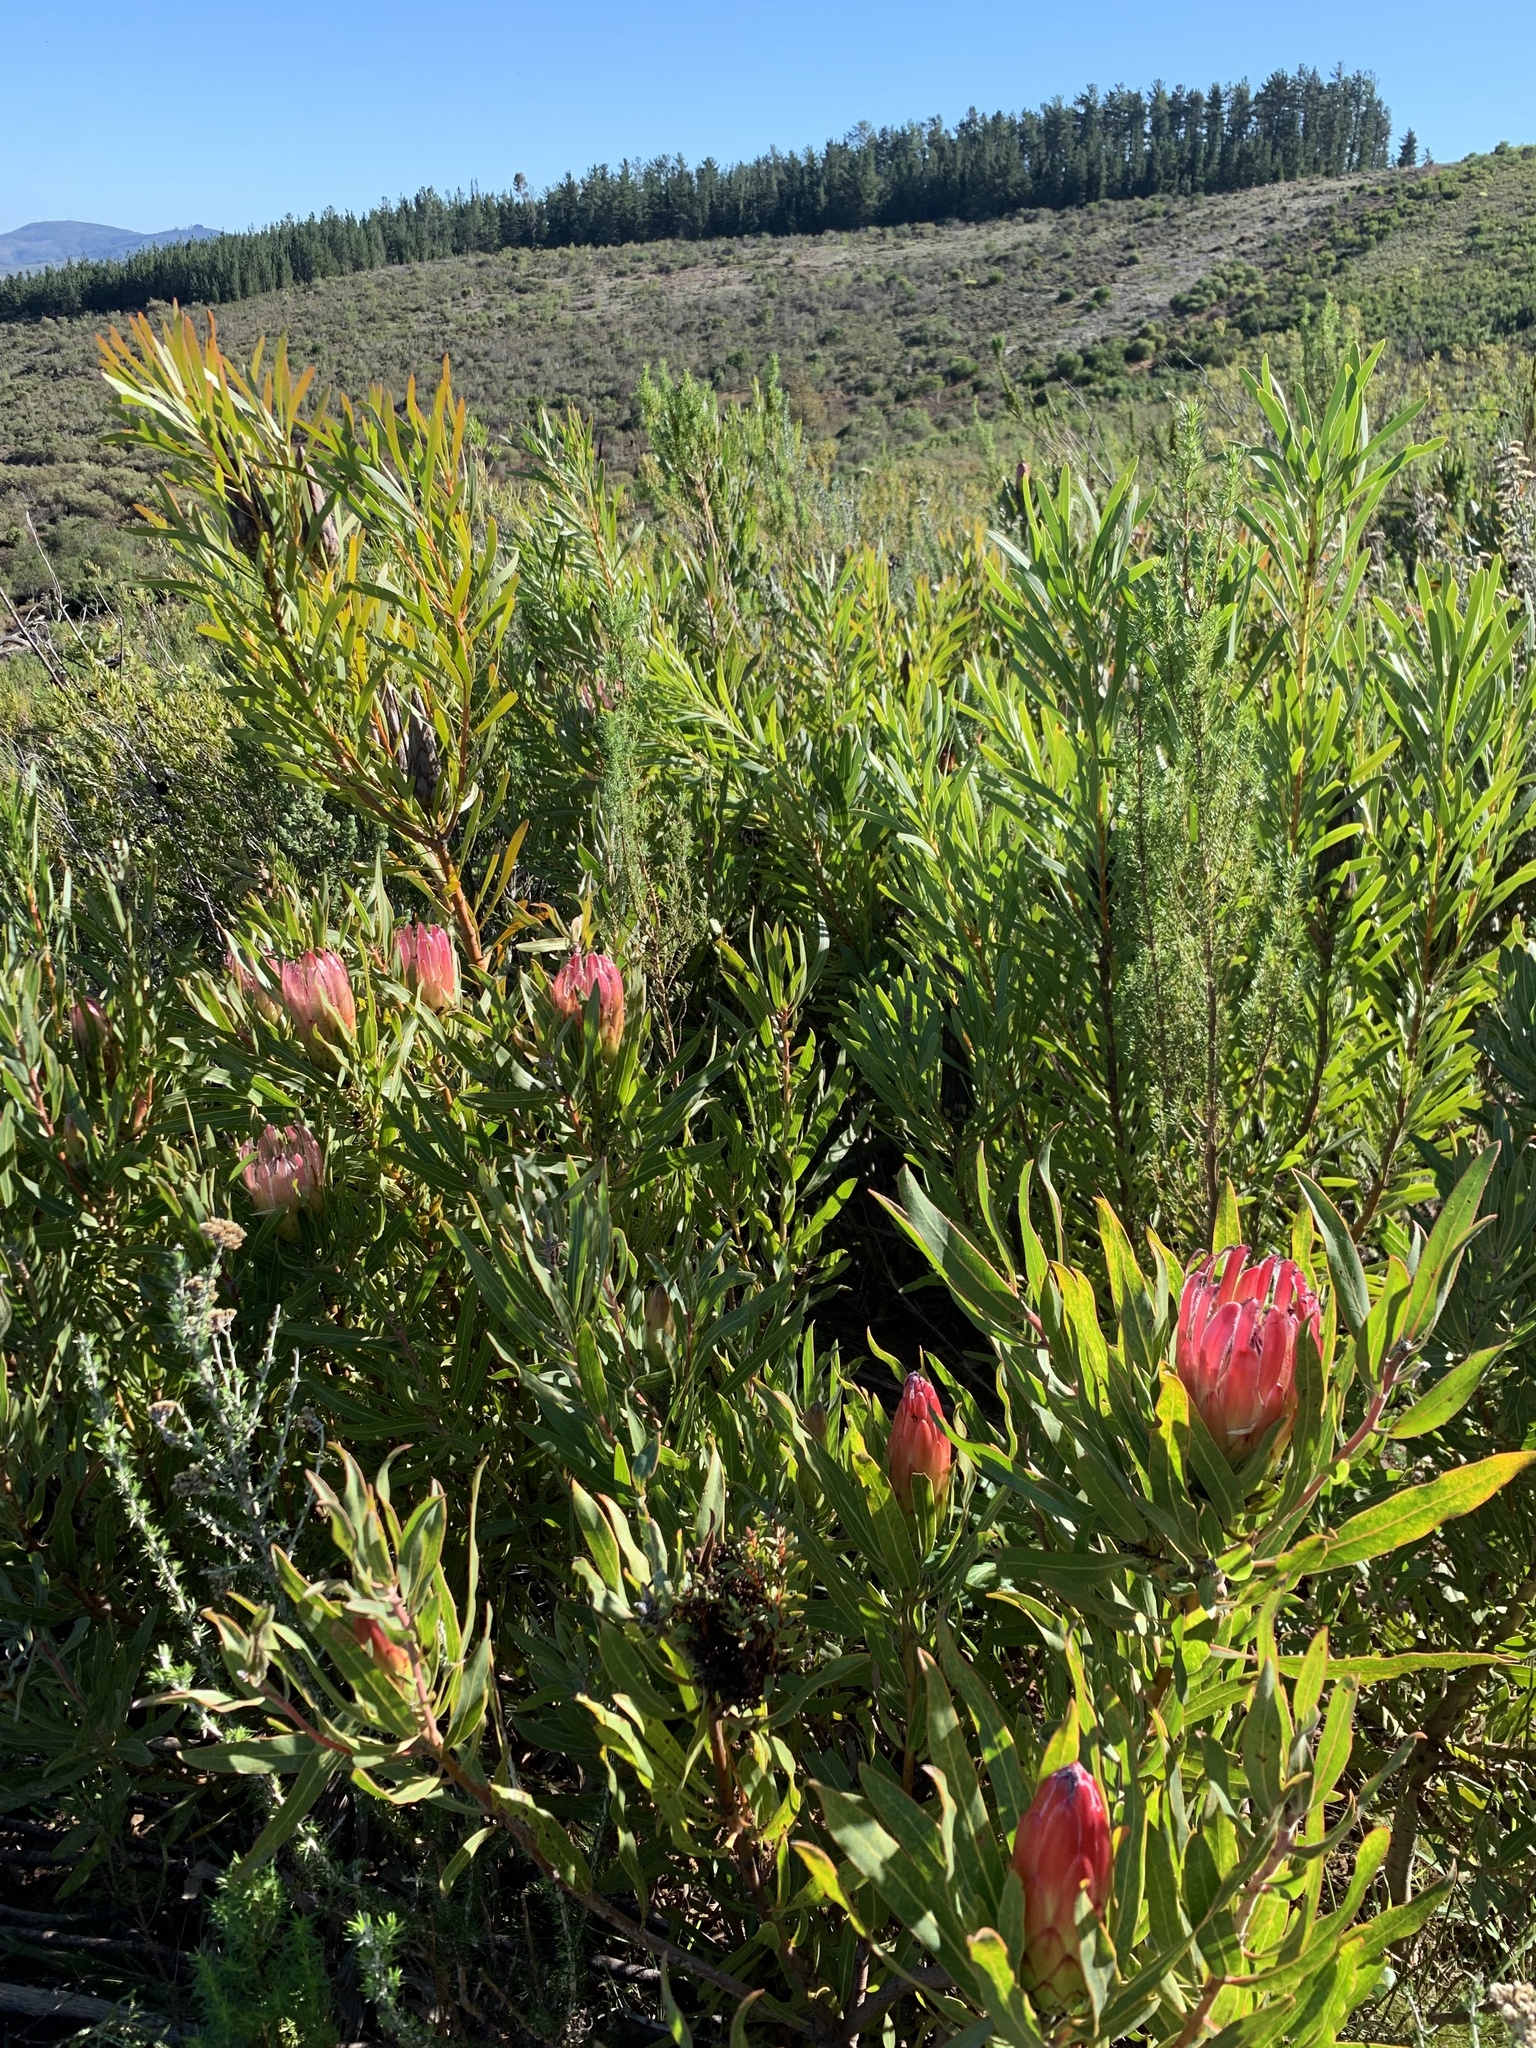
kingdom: Plantae
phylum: Tracheophyta
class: Magnoliopsida
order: Proteales
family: Proteaceae
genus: Protea
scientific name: Protea burchellii
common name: Burchell's sugarbush
